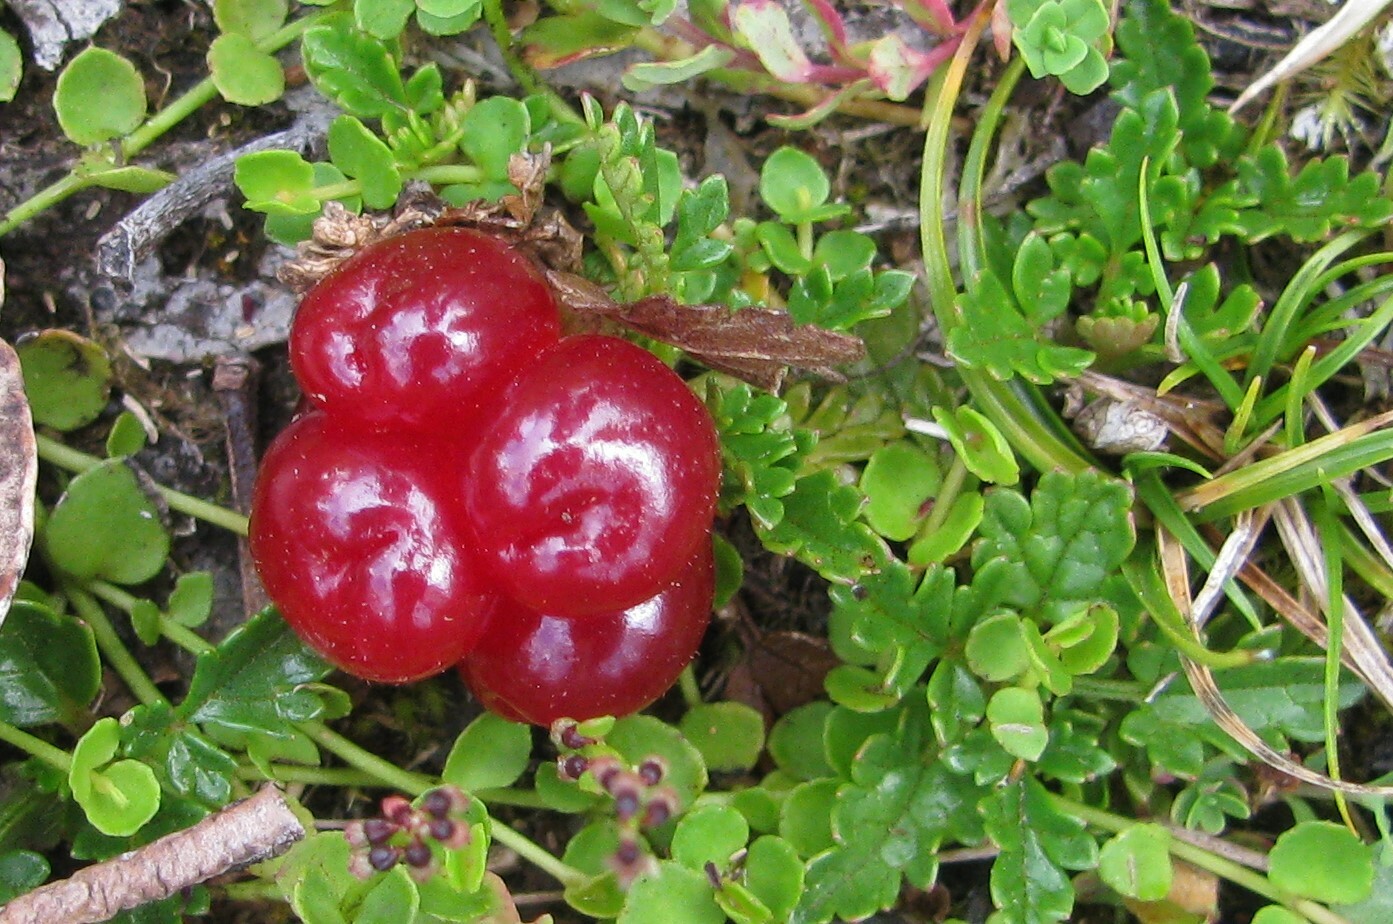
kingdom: Plantae
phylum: Tracheophyta
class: Magnoliopsida
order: Rosales
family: Rosaceae
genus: Rubus
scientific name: Rubus gunnianus
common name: Mountain raspberry
